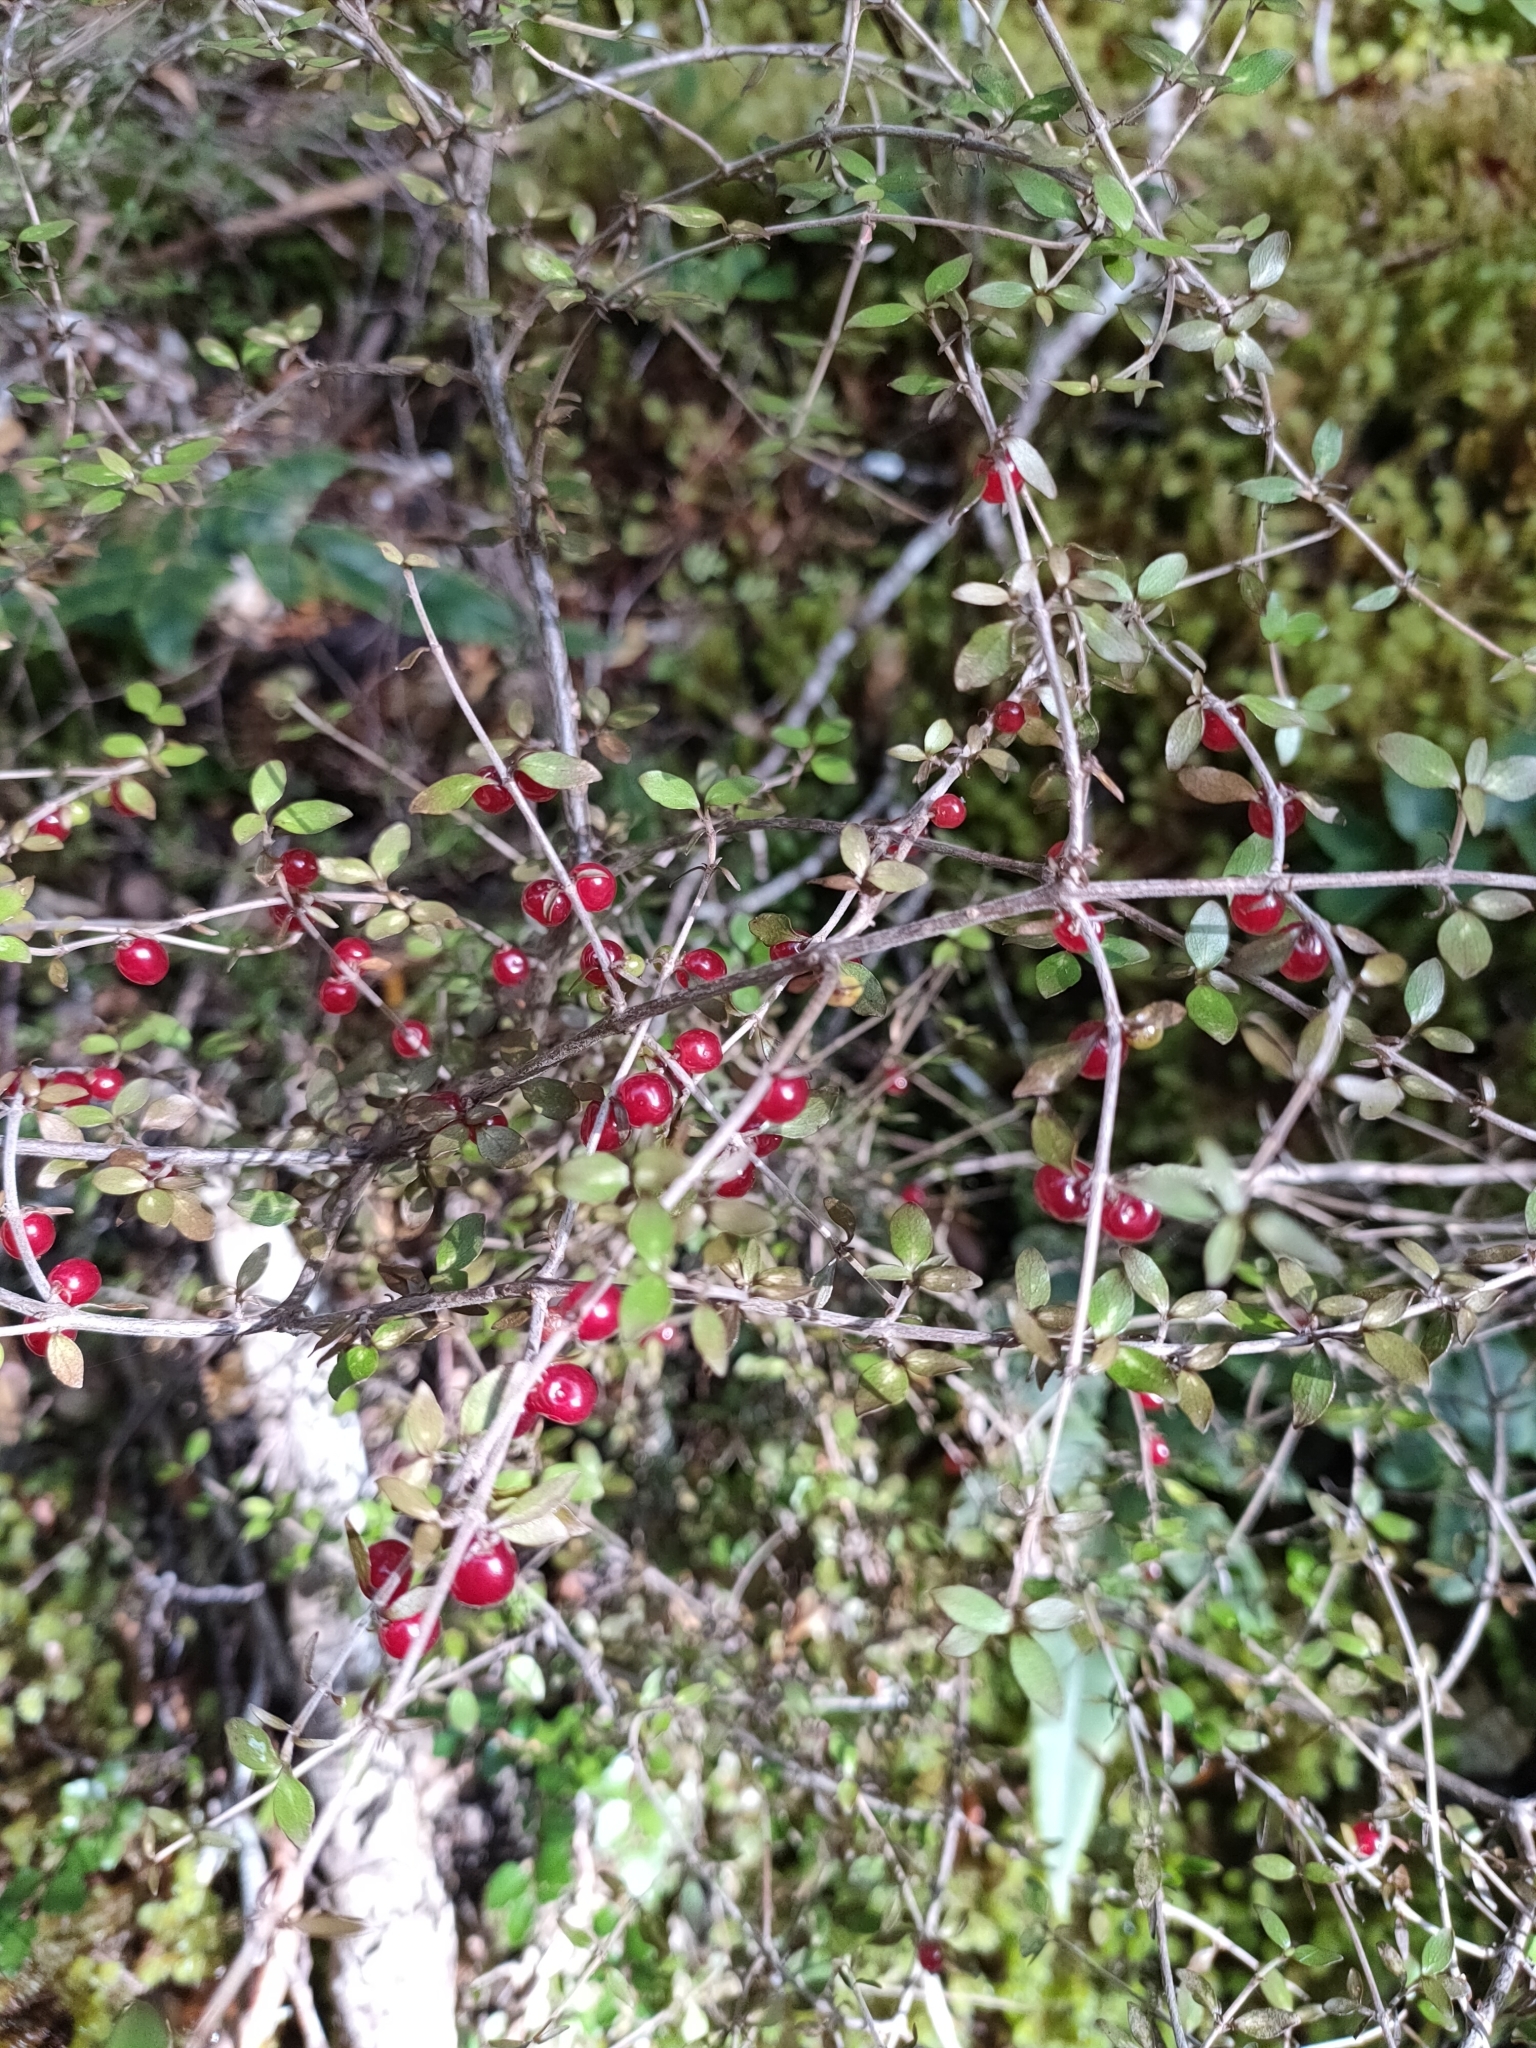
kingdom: Plantae
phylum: Tracheophyta
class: Magnoliopsida
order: Gentianales
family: Rubiaceae
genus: Coprosma
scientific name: Coprosma rhamnoides
